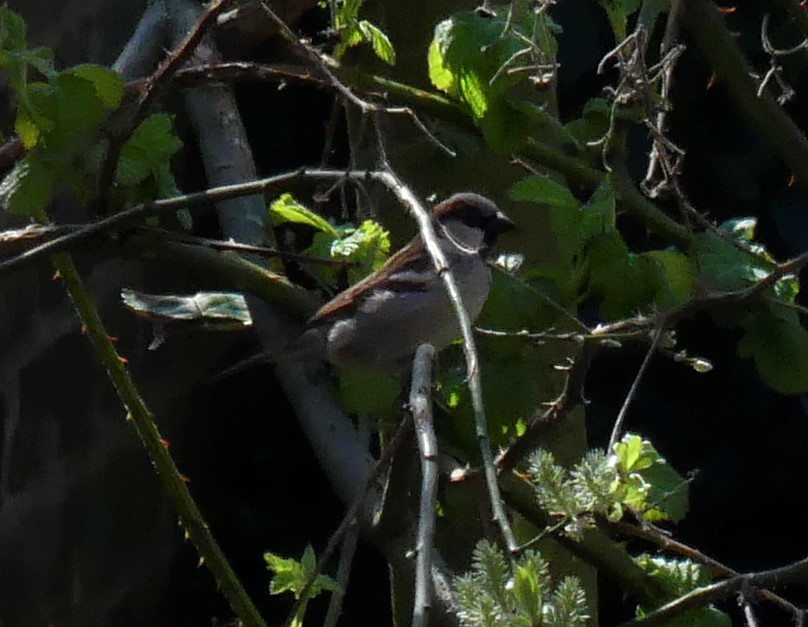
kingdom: Animalia
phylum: Chordata
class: Aves
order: Passeriformes
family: Passeridae
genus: Passer
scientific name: Passer domesticus
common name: House sparrow
